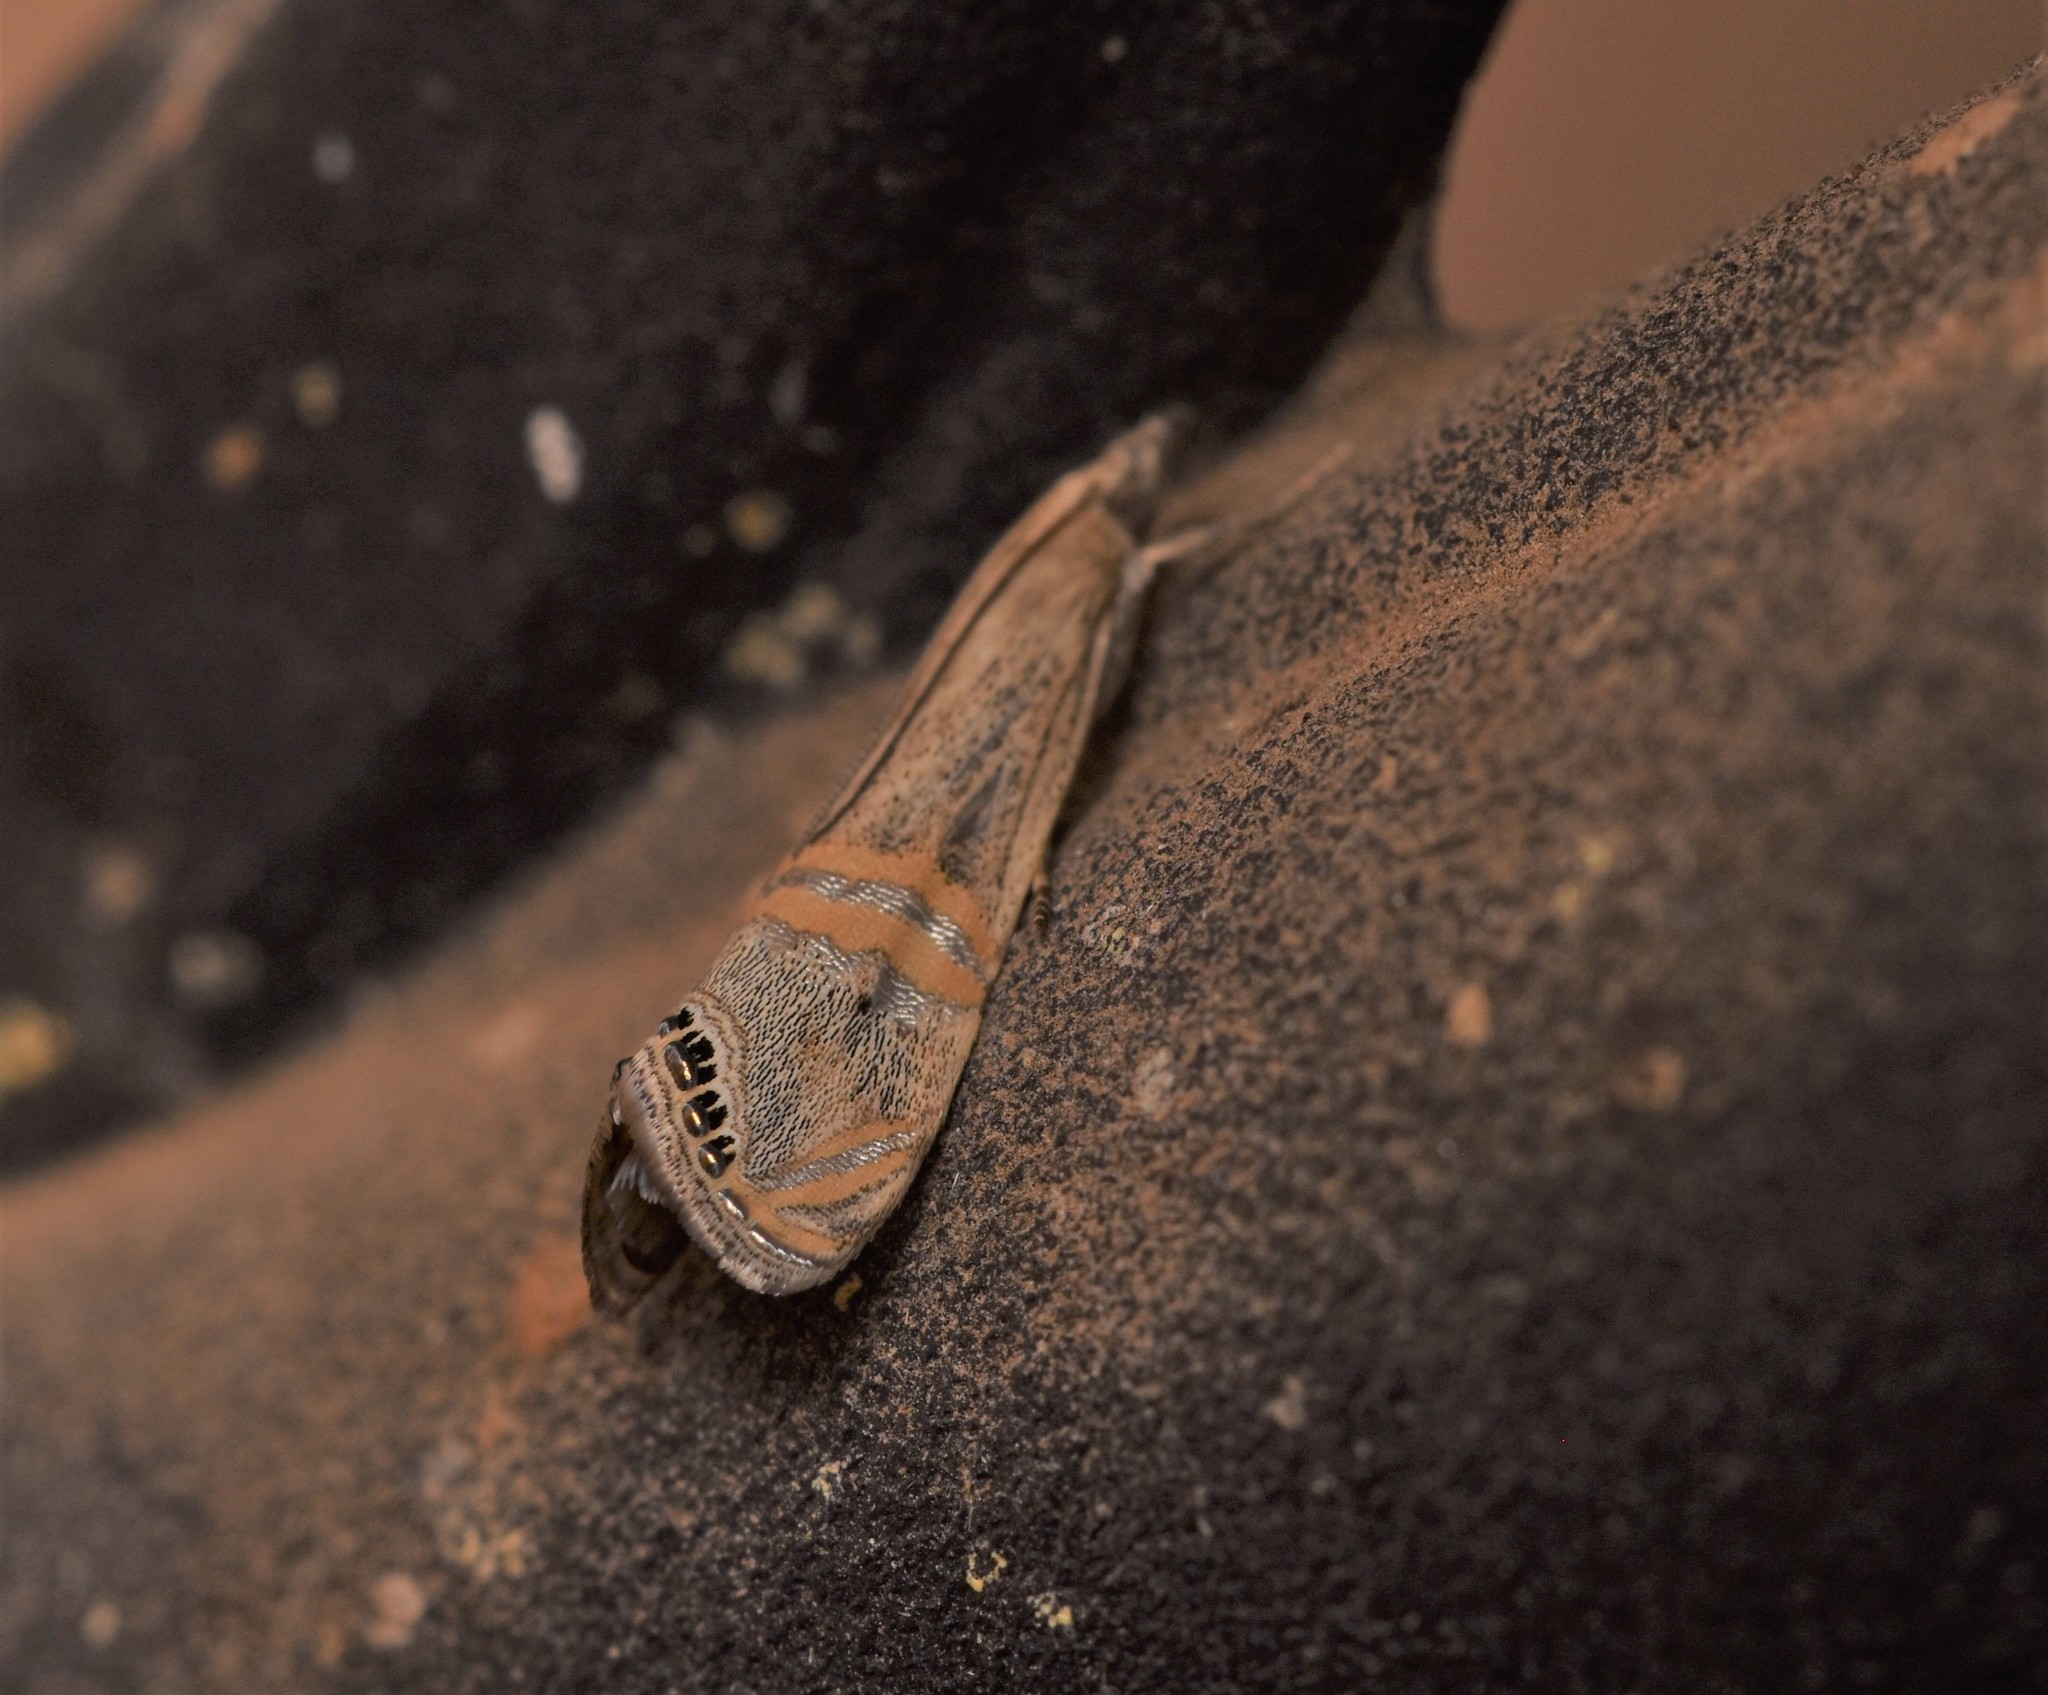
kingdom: Animalia
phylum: Arthropoda
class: Insecta
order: Lepidoptera
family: Crambidae
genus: Euchromius
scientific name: Euchromius ocellea
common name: Necklace veneer moth
